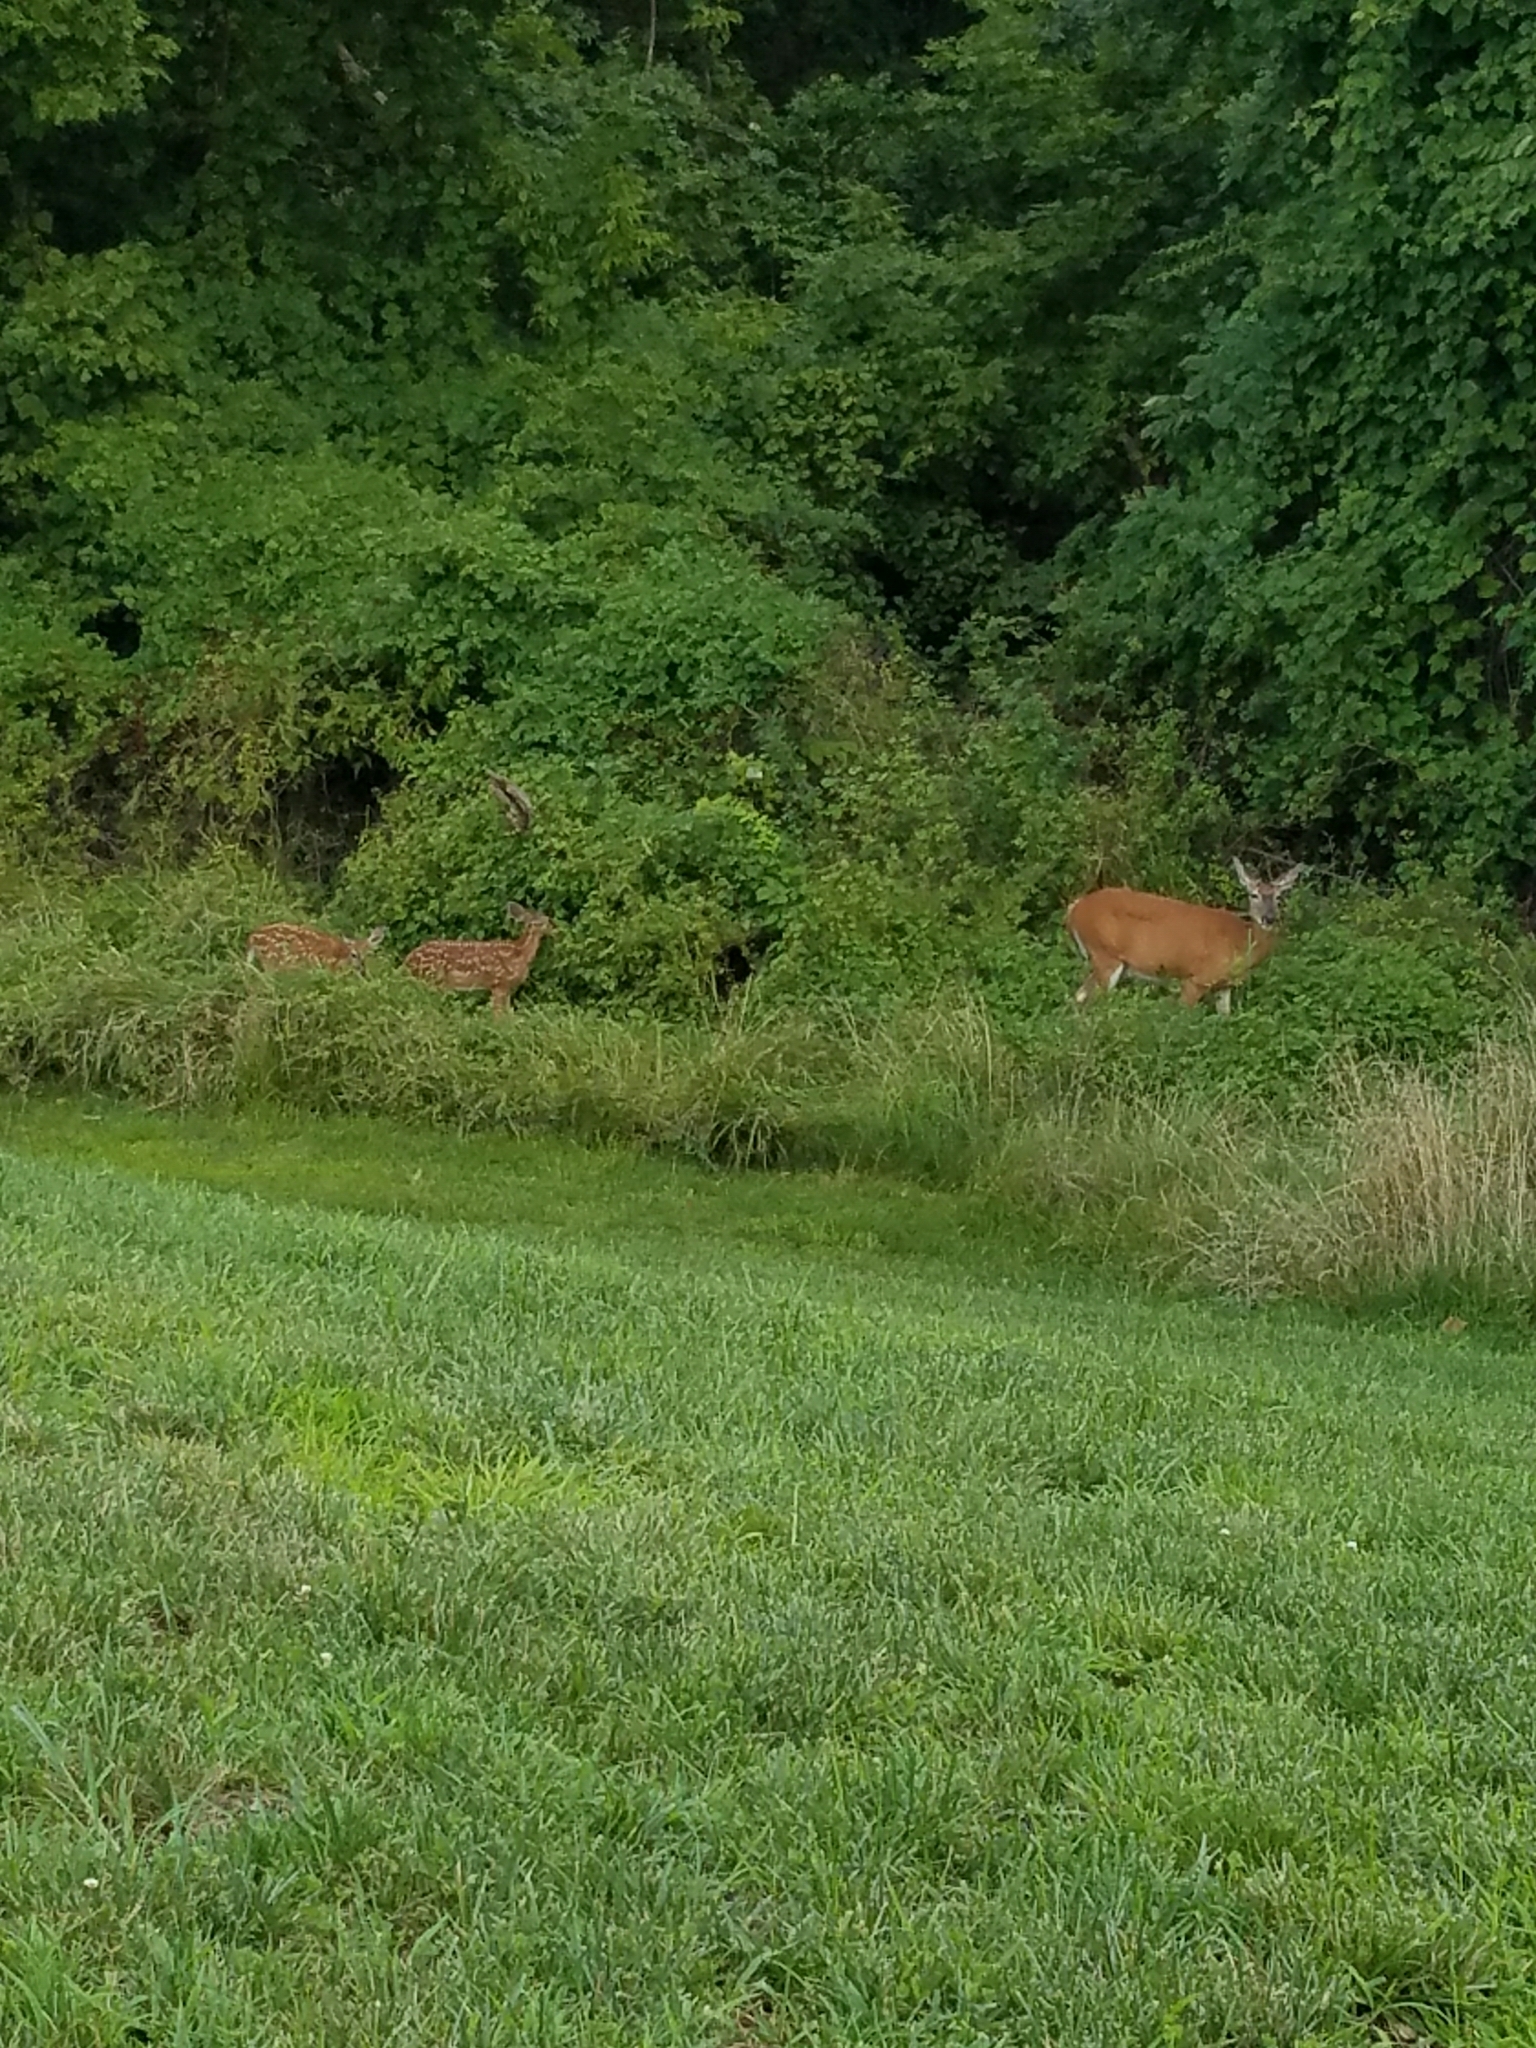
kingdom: Animalia
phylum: Chordata
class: Mammalia
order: Artiodactyla
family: Cervidae
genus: Odocoileus
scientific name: Odocoileus virginianus
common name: White-tailed deer
